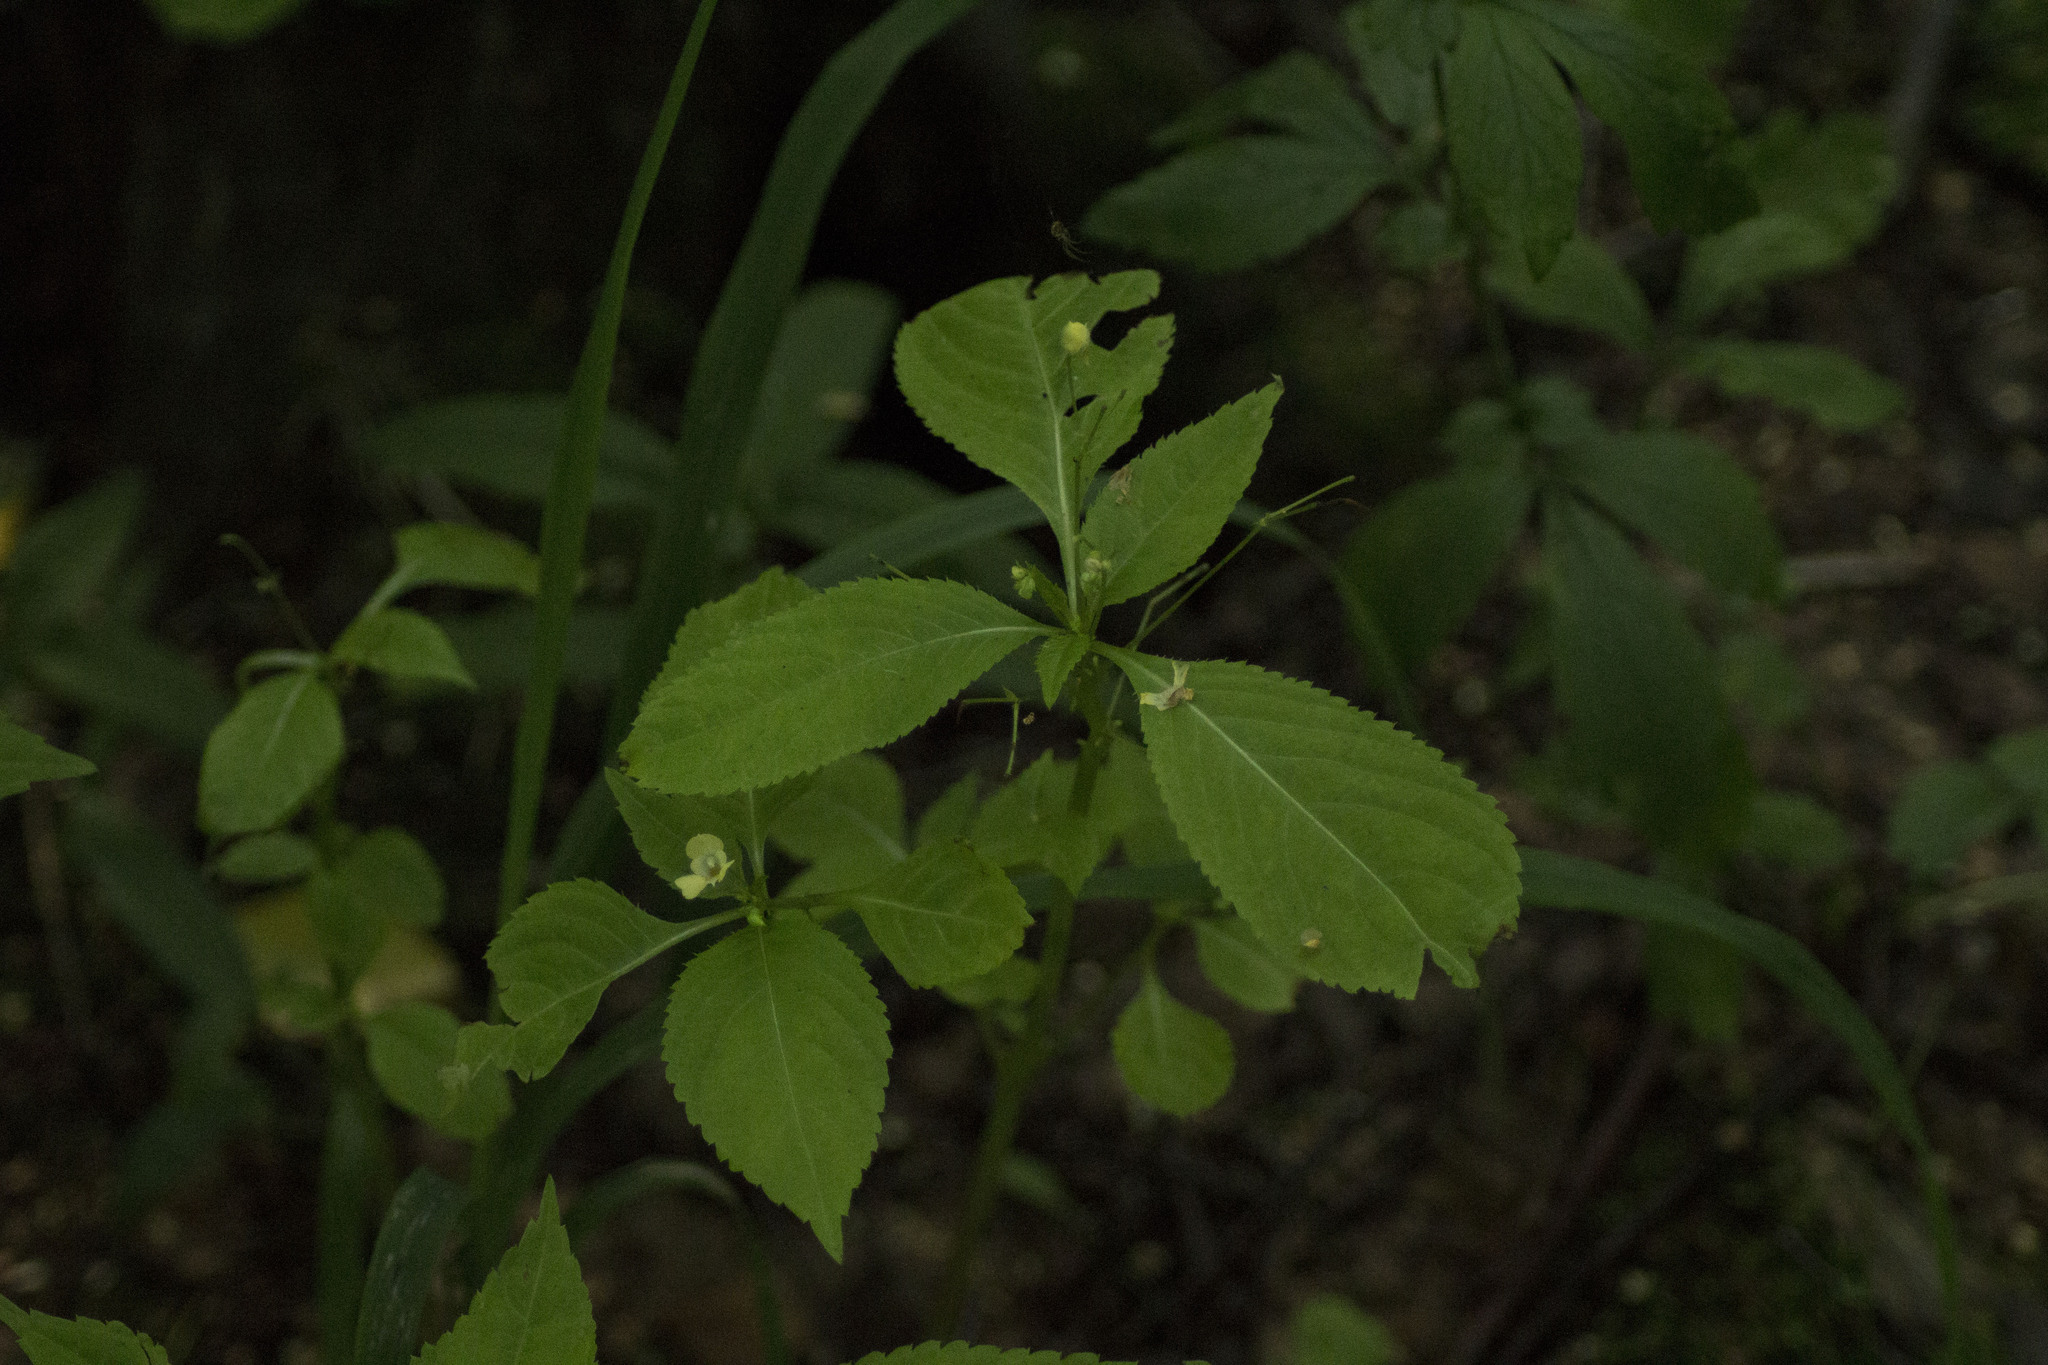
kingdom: Plantae
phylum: Tracheophyta
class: Magnoliopsida
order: Ericales
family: Balsaminaceae
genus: Impatiens
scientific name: Impatiens parviflora
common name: Small balsam
